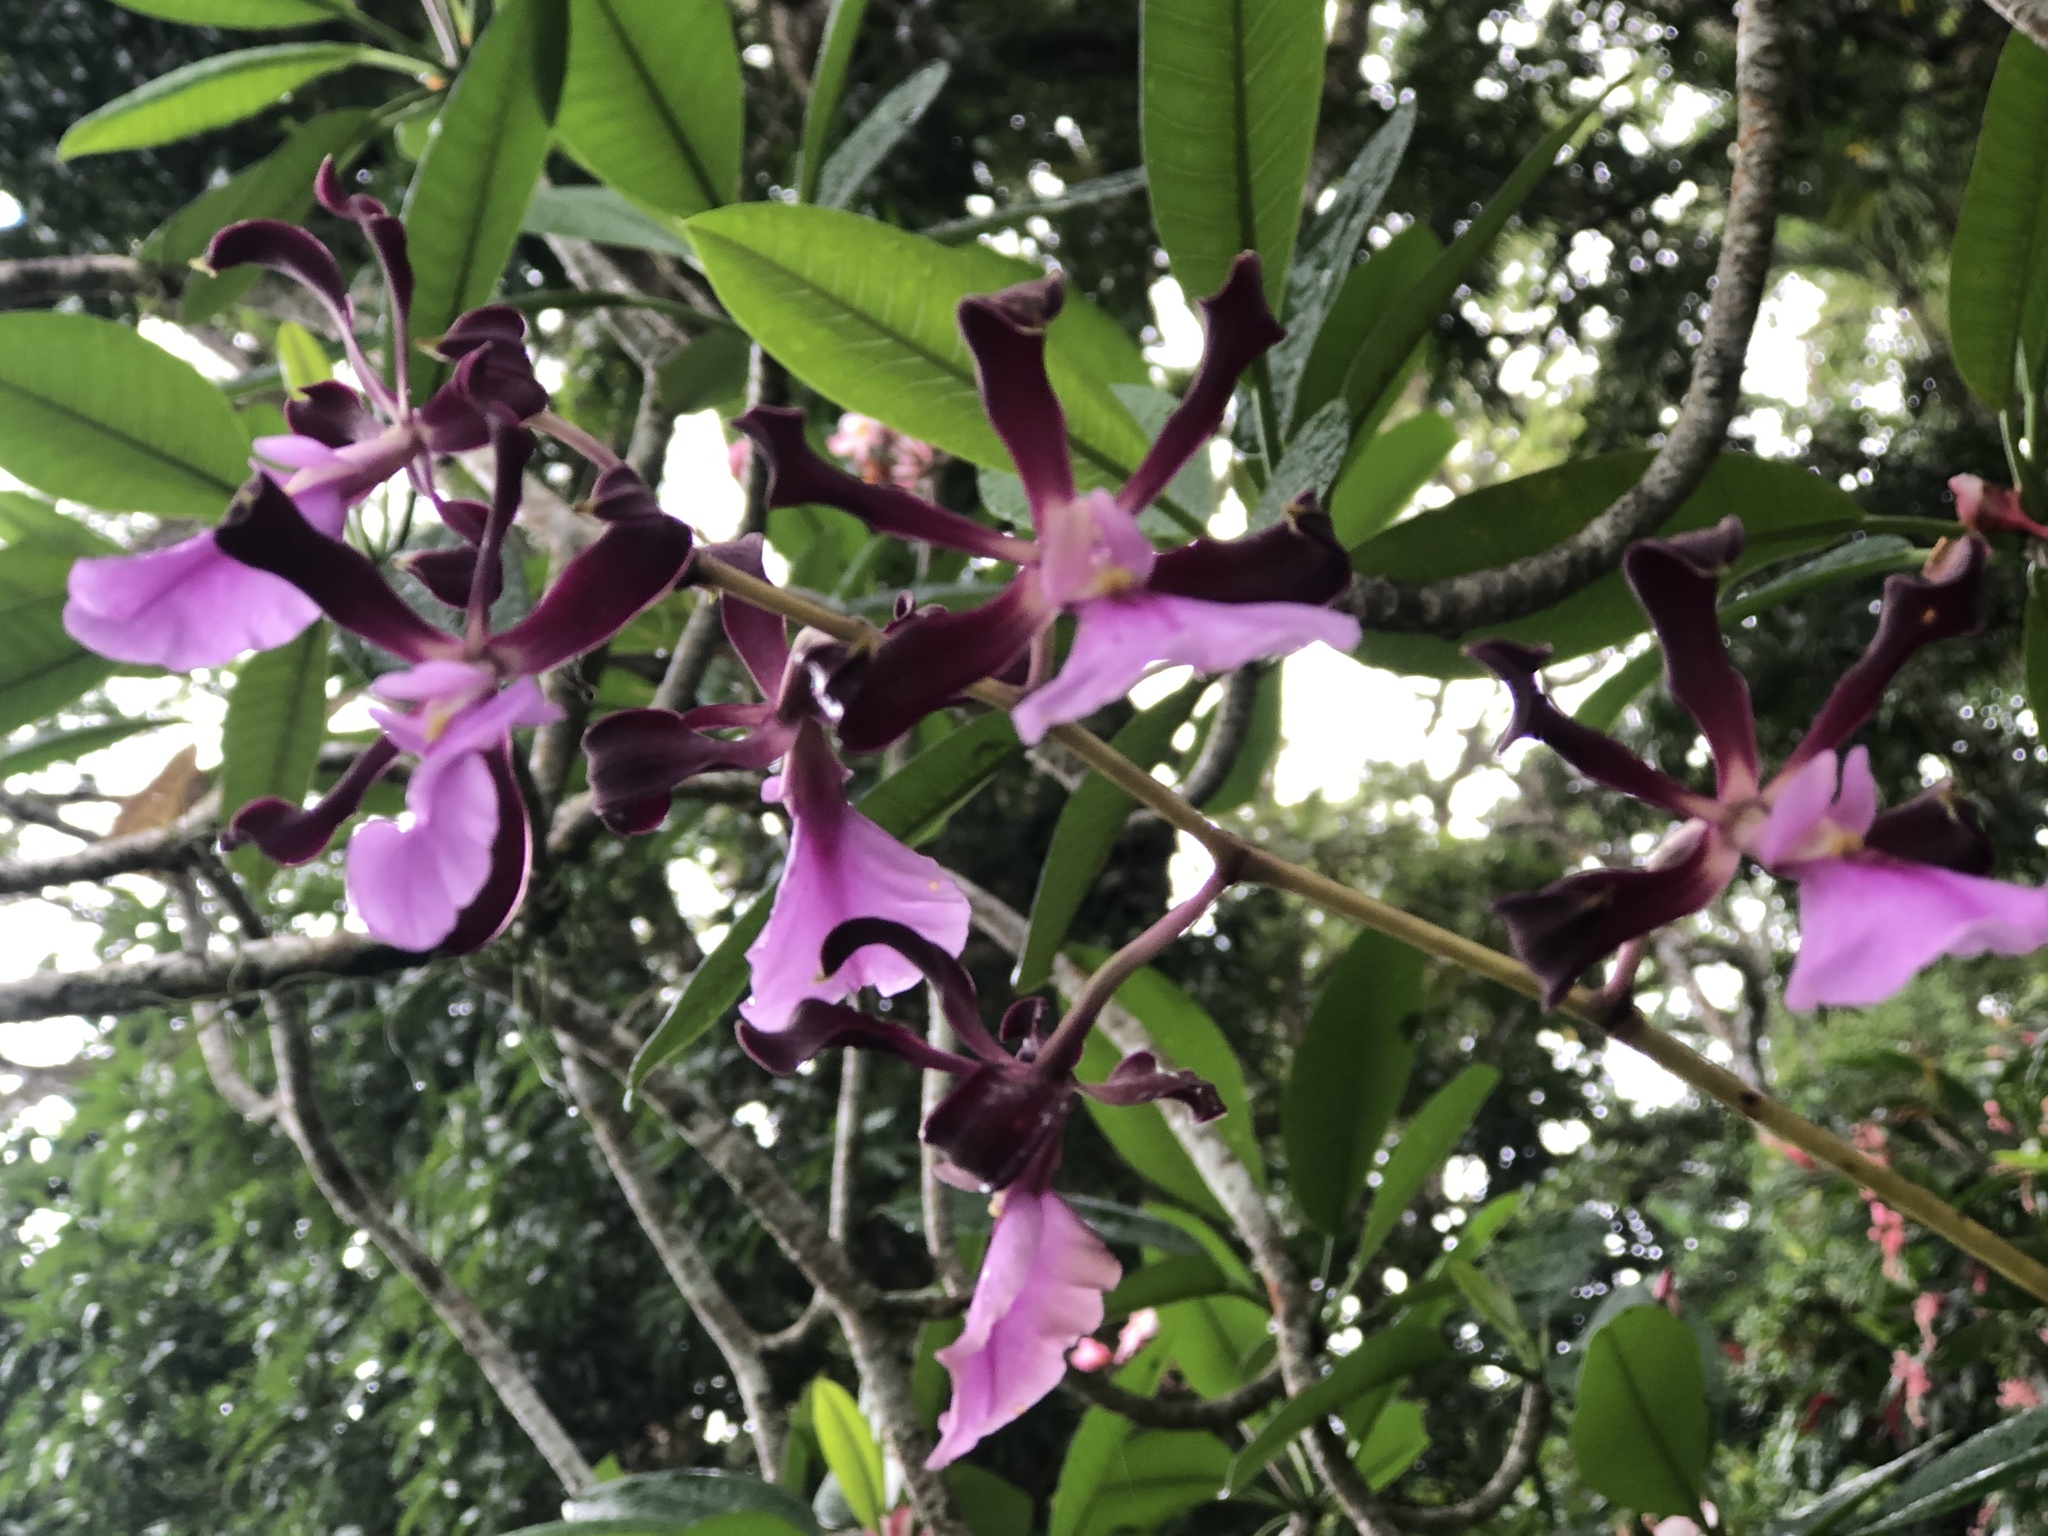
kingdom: Plantae
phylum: Tracheophyta
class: Liliopsida
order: Asparagales
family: Orchidaceae
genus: Encyclia
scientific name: Encyclia cordigera
